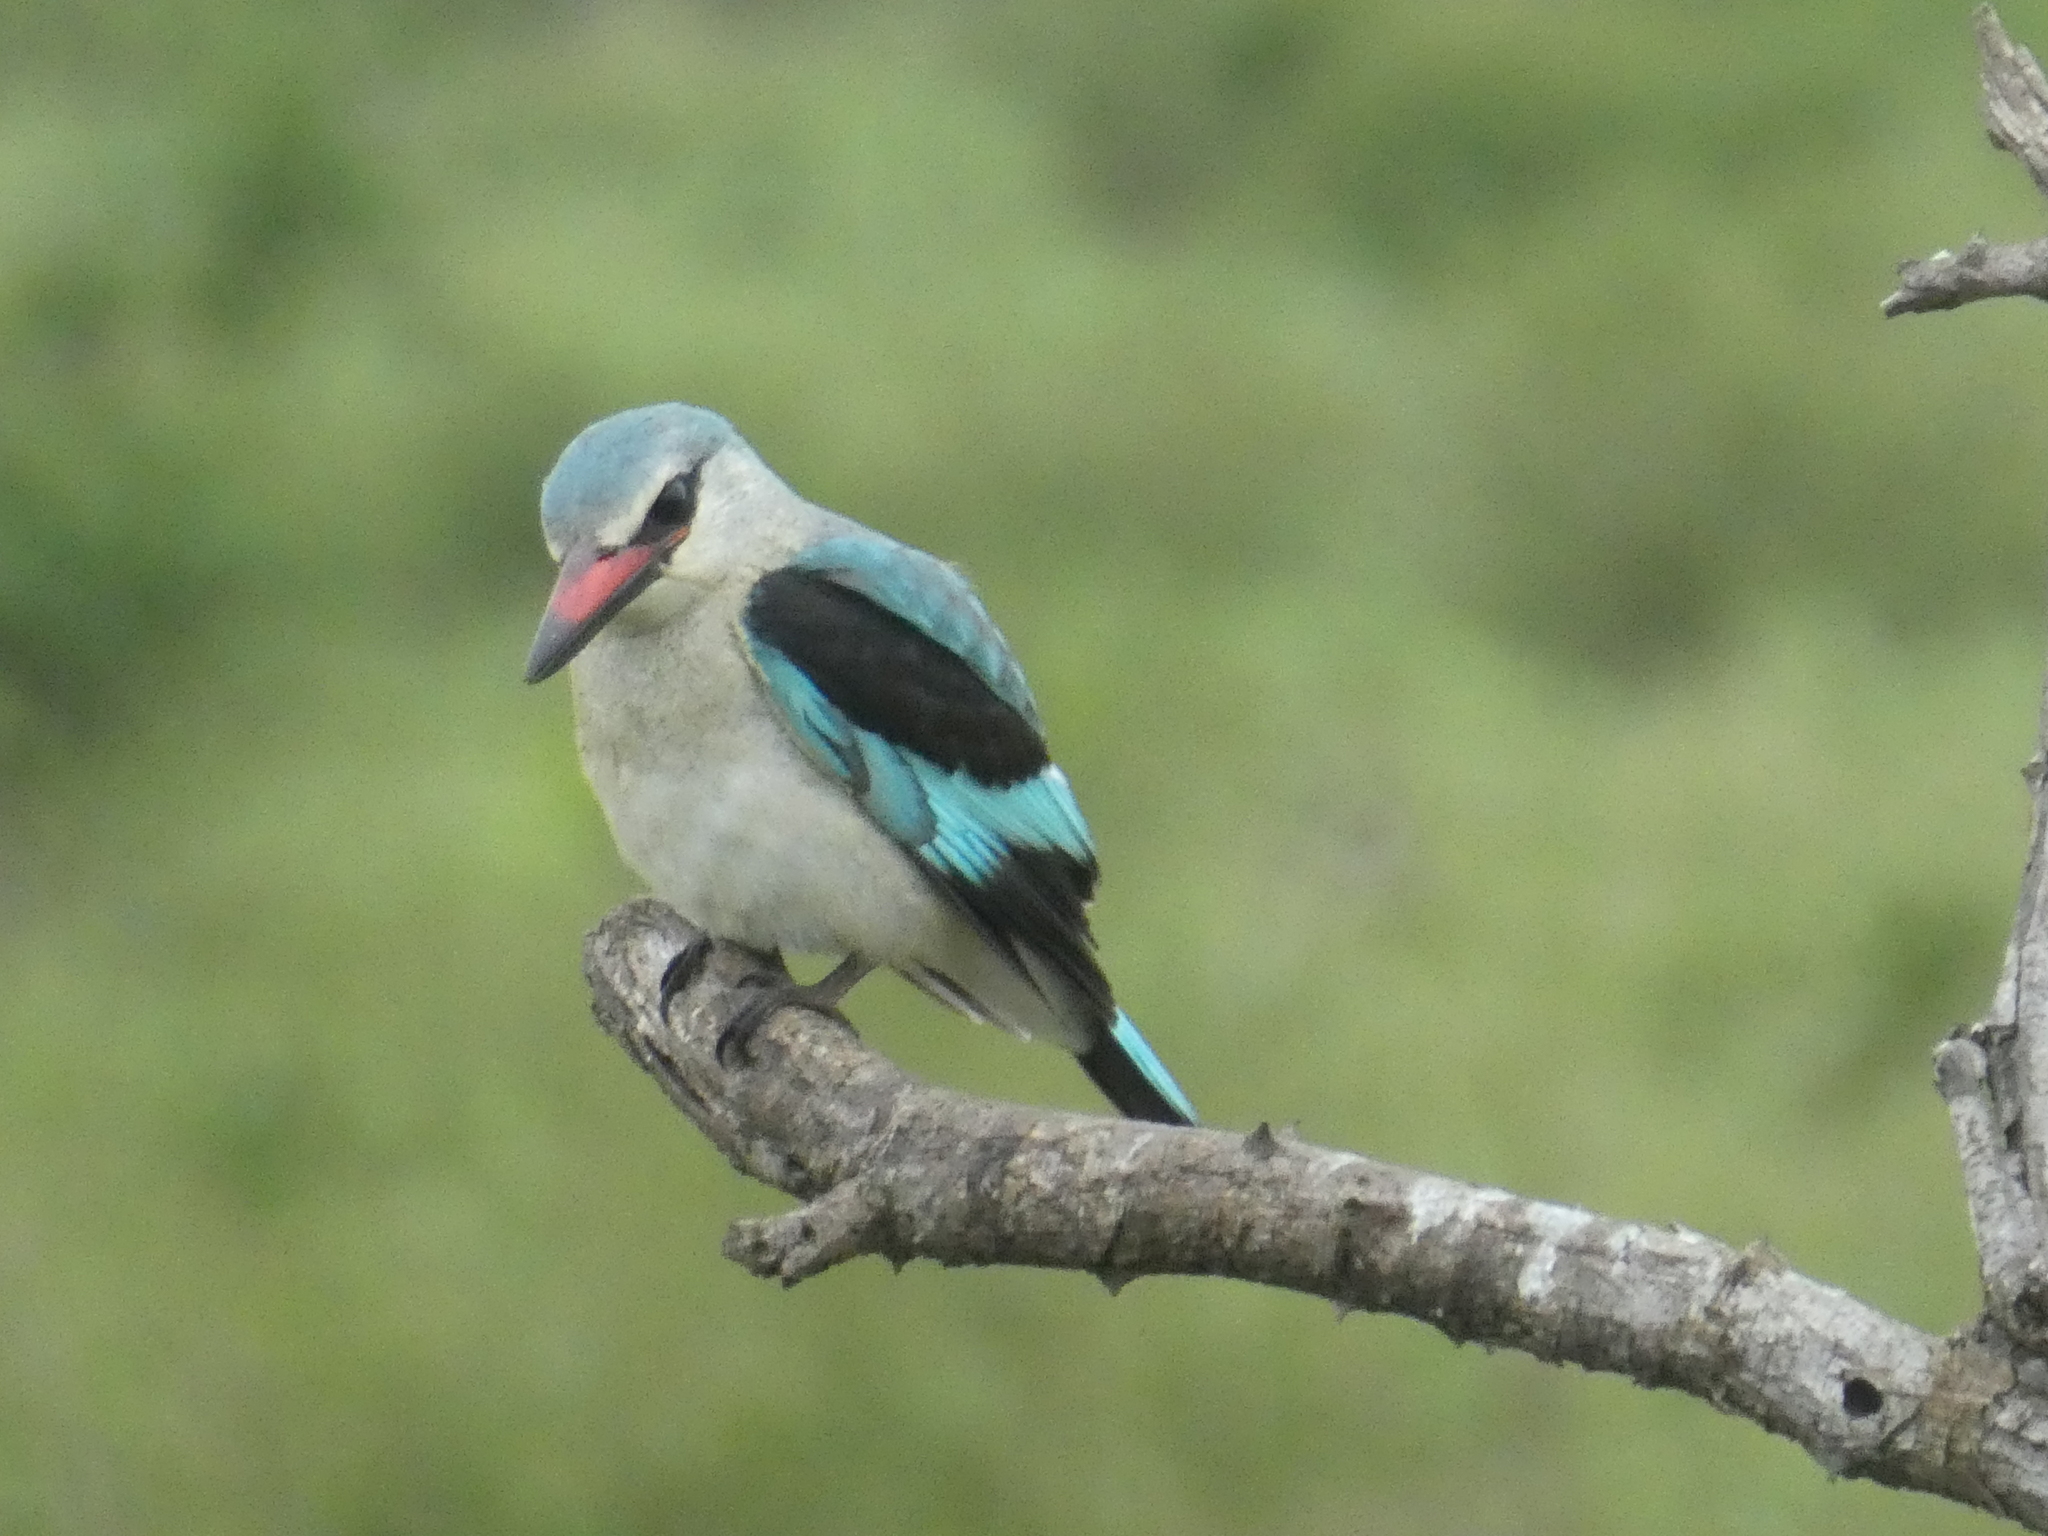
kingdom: Animalia
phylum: Chordata
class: Aves
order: Coraciiformes
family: Alcedinidae
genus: Halcyon
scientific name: Halcyon senegalensis
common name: Woodland kingfisher
